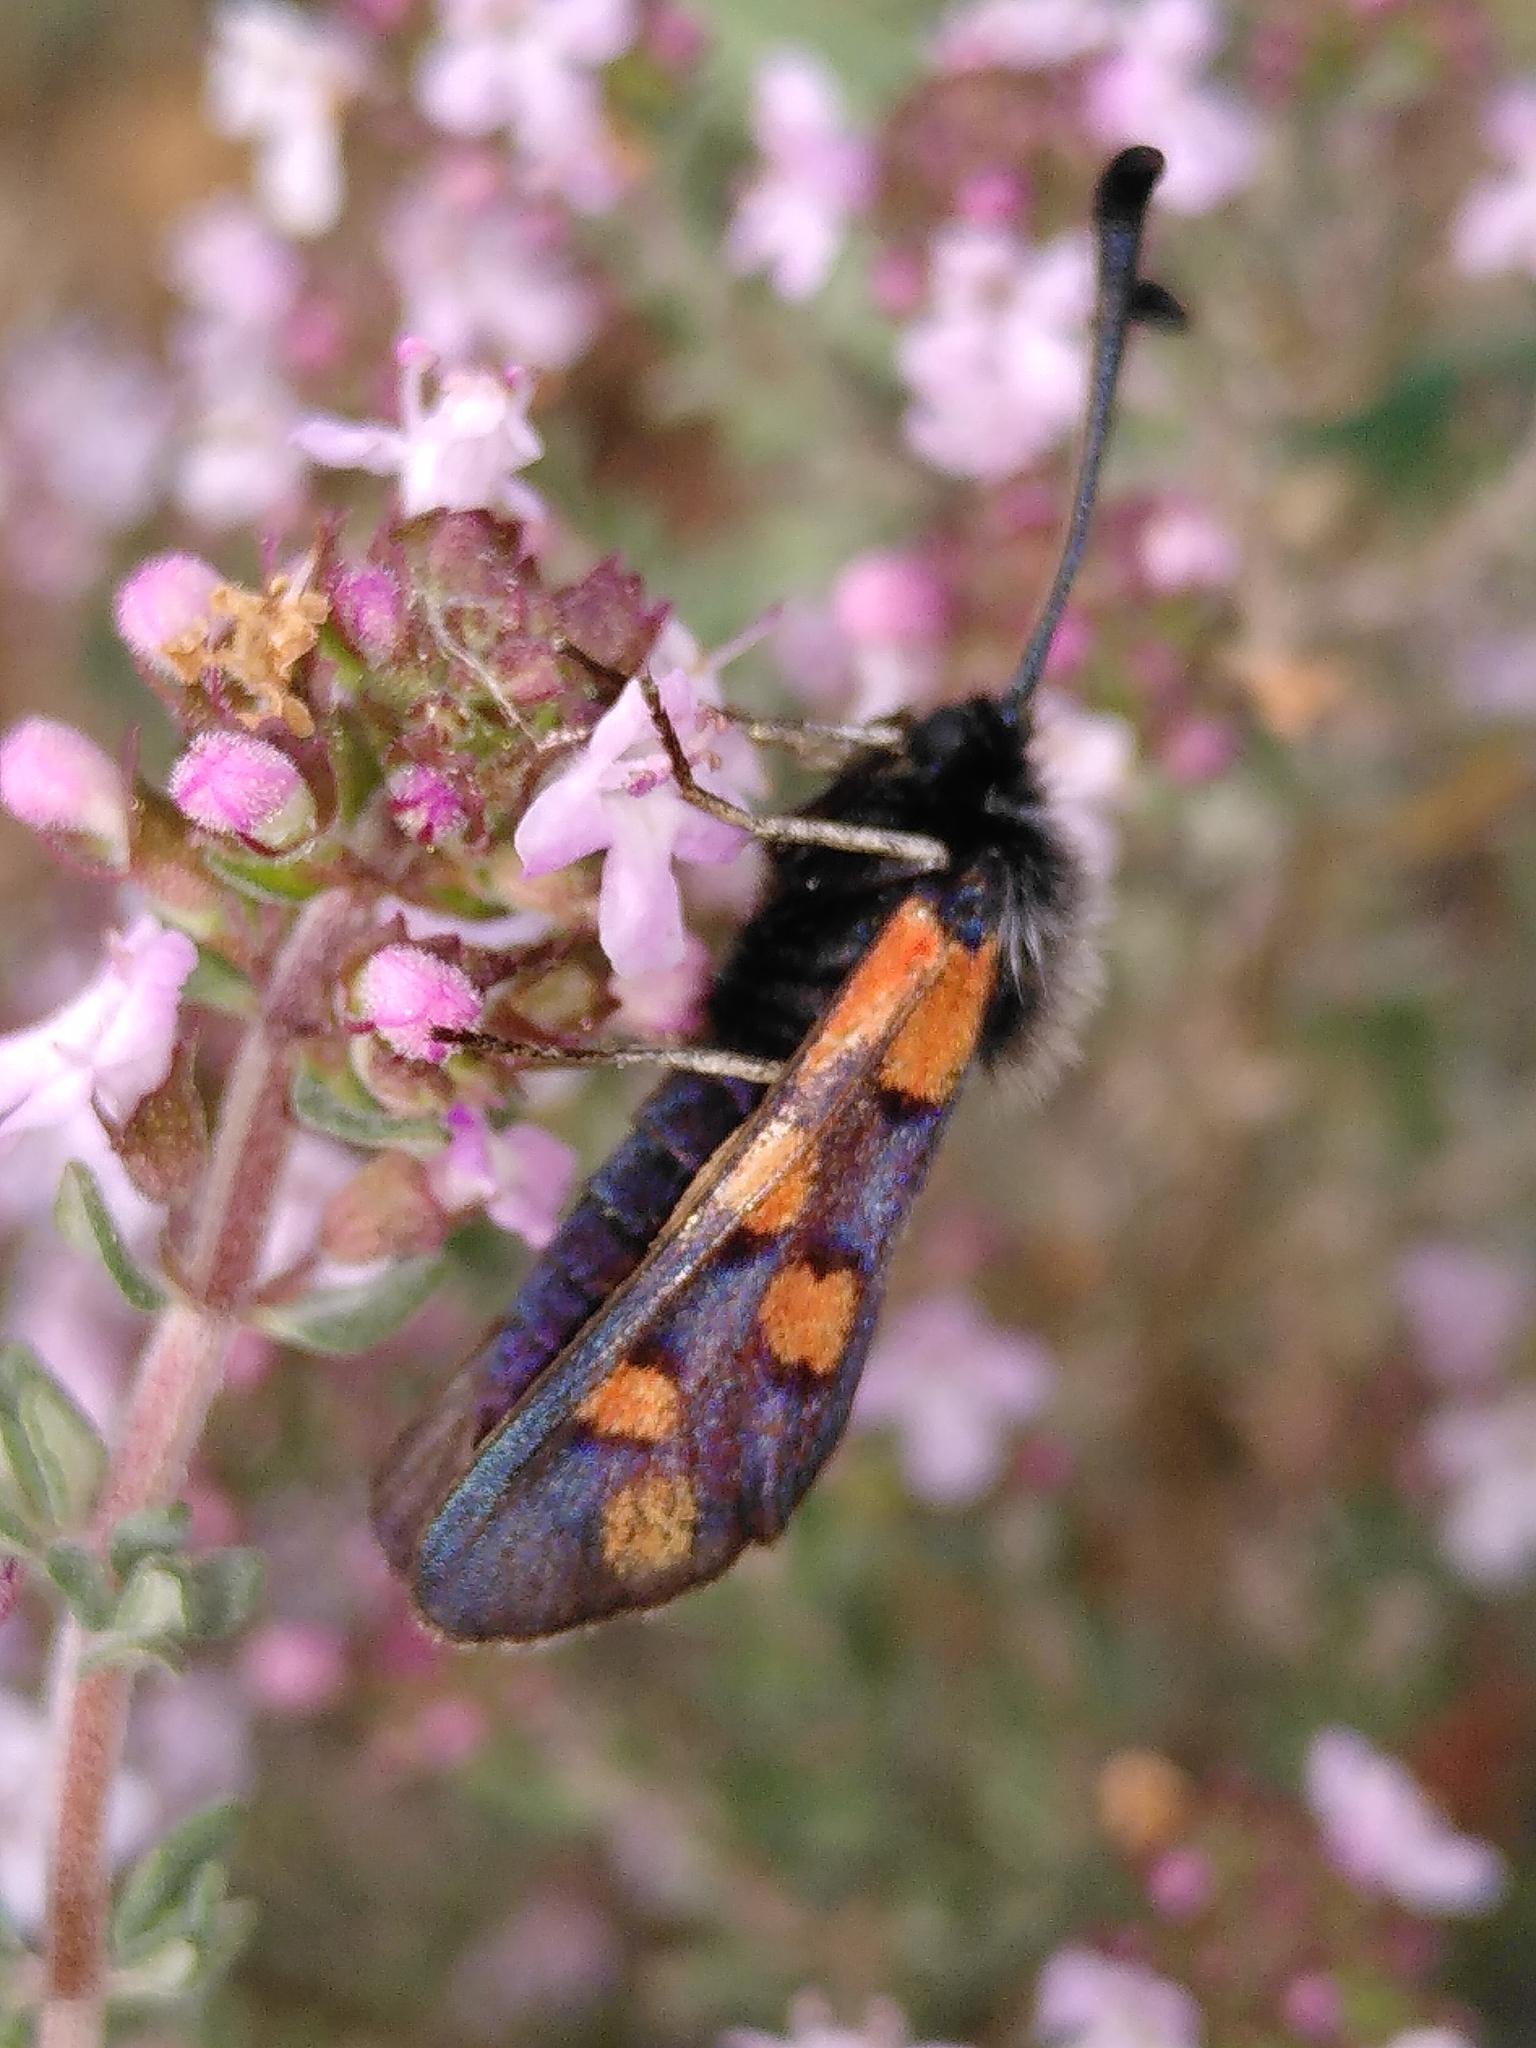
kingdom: Animalia
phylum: Arthropoda
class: Insecta
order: Lepidoptera
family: Zygaenidae
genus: Zygaena
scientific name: Zygaena rhadamanthus
